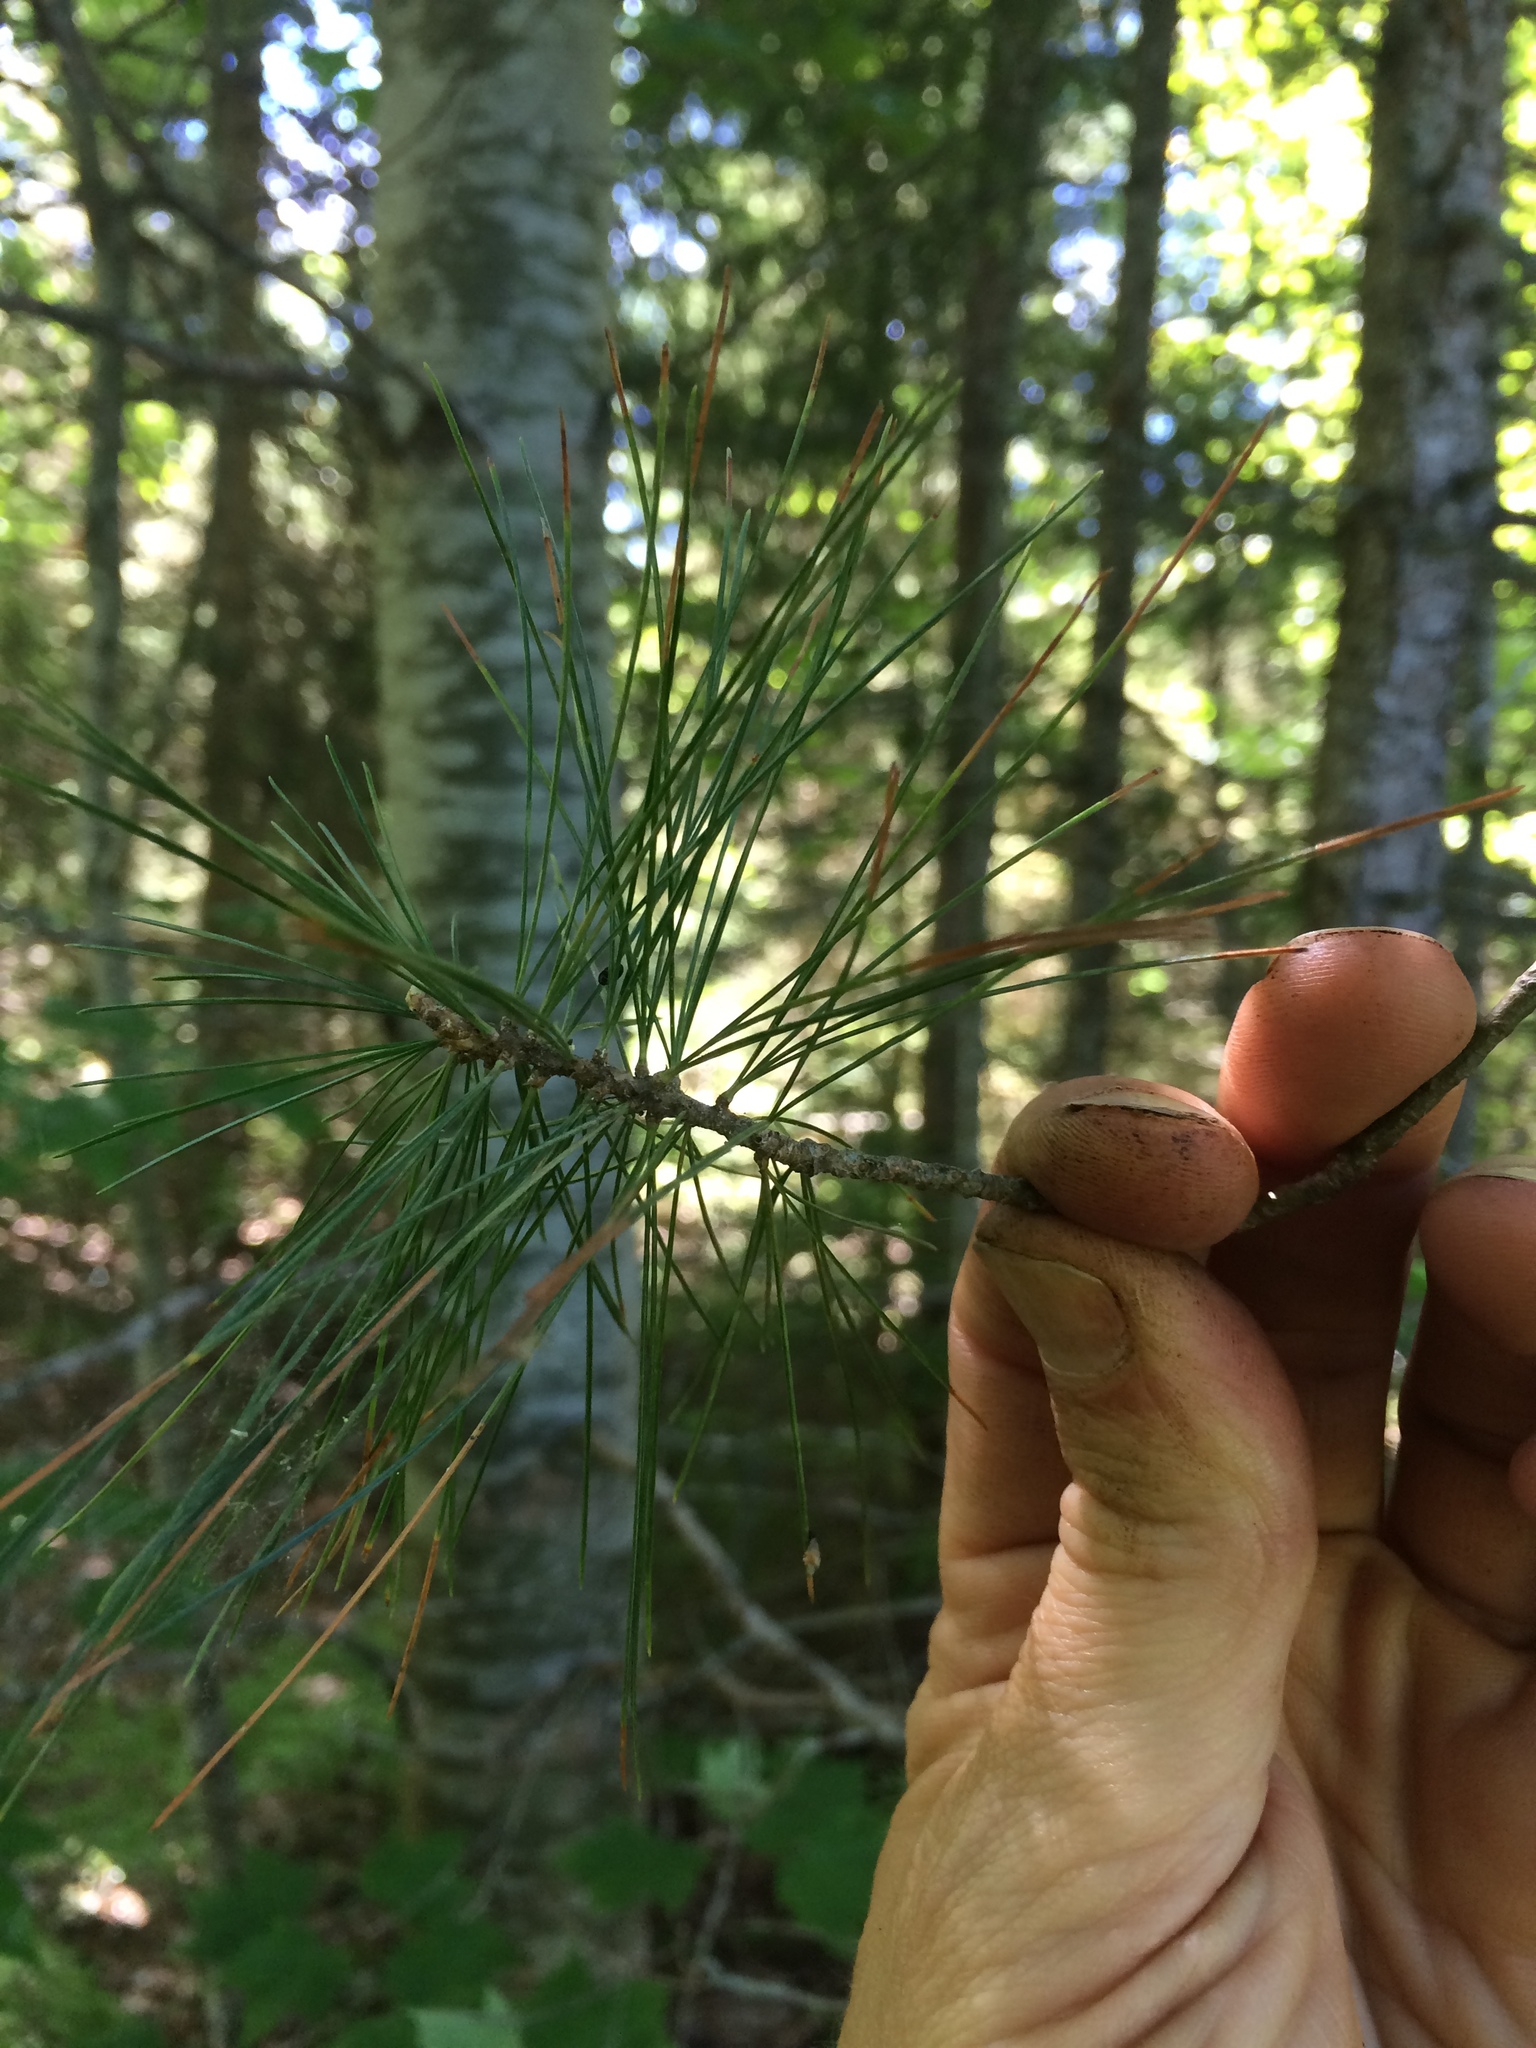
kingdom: Plantae
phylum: Tracheophyta
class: Pinopsida
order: Pinales
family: Pinaceae
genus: Pinus
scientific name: Pinus strobus
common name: Weymouth pine
